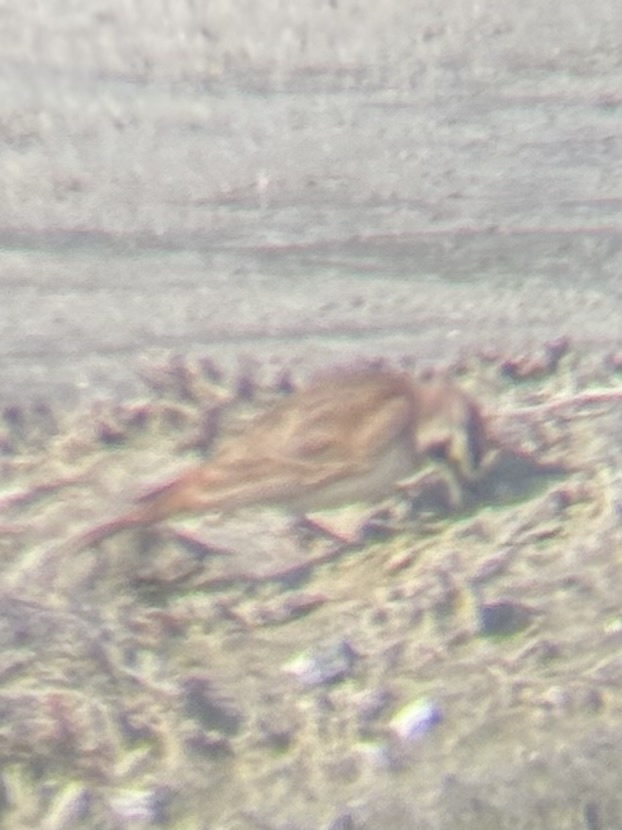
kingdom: Animalia
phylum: Chordata
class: Aves
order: Passeriformes
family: Alaudidae
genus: Eremophila
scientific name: Eremophila alpestris
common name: Horned lark
